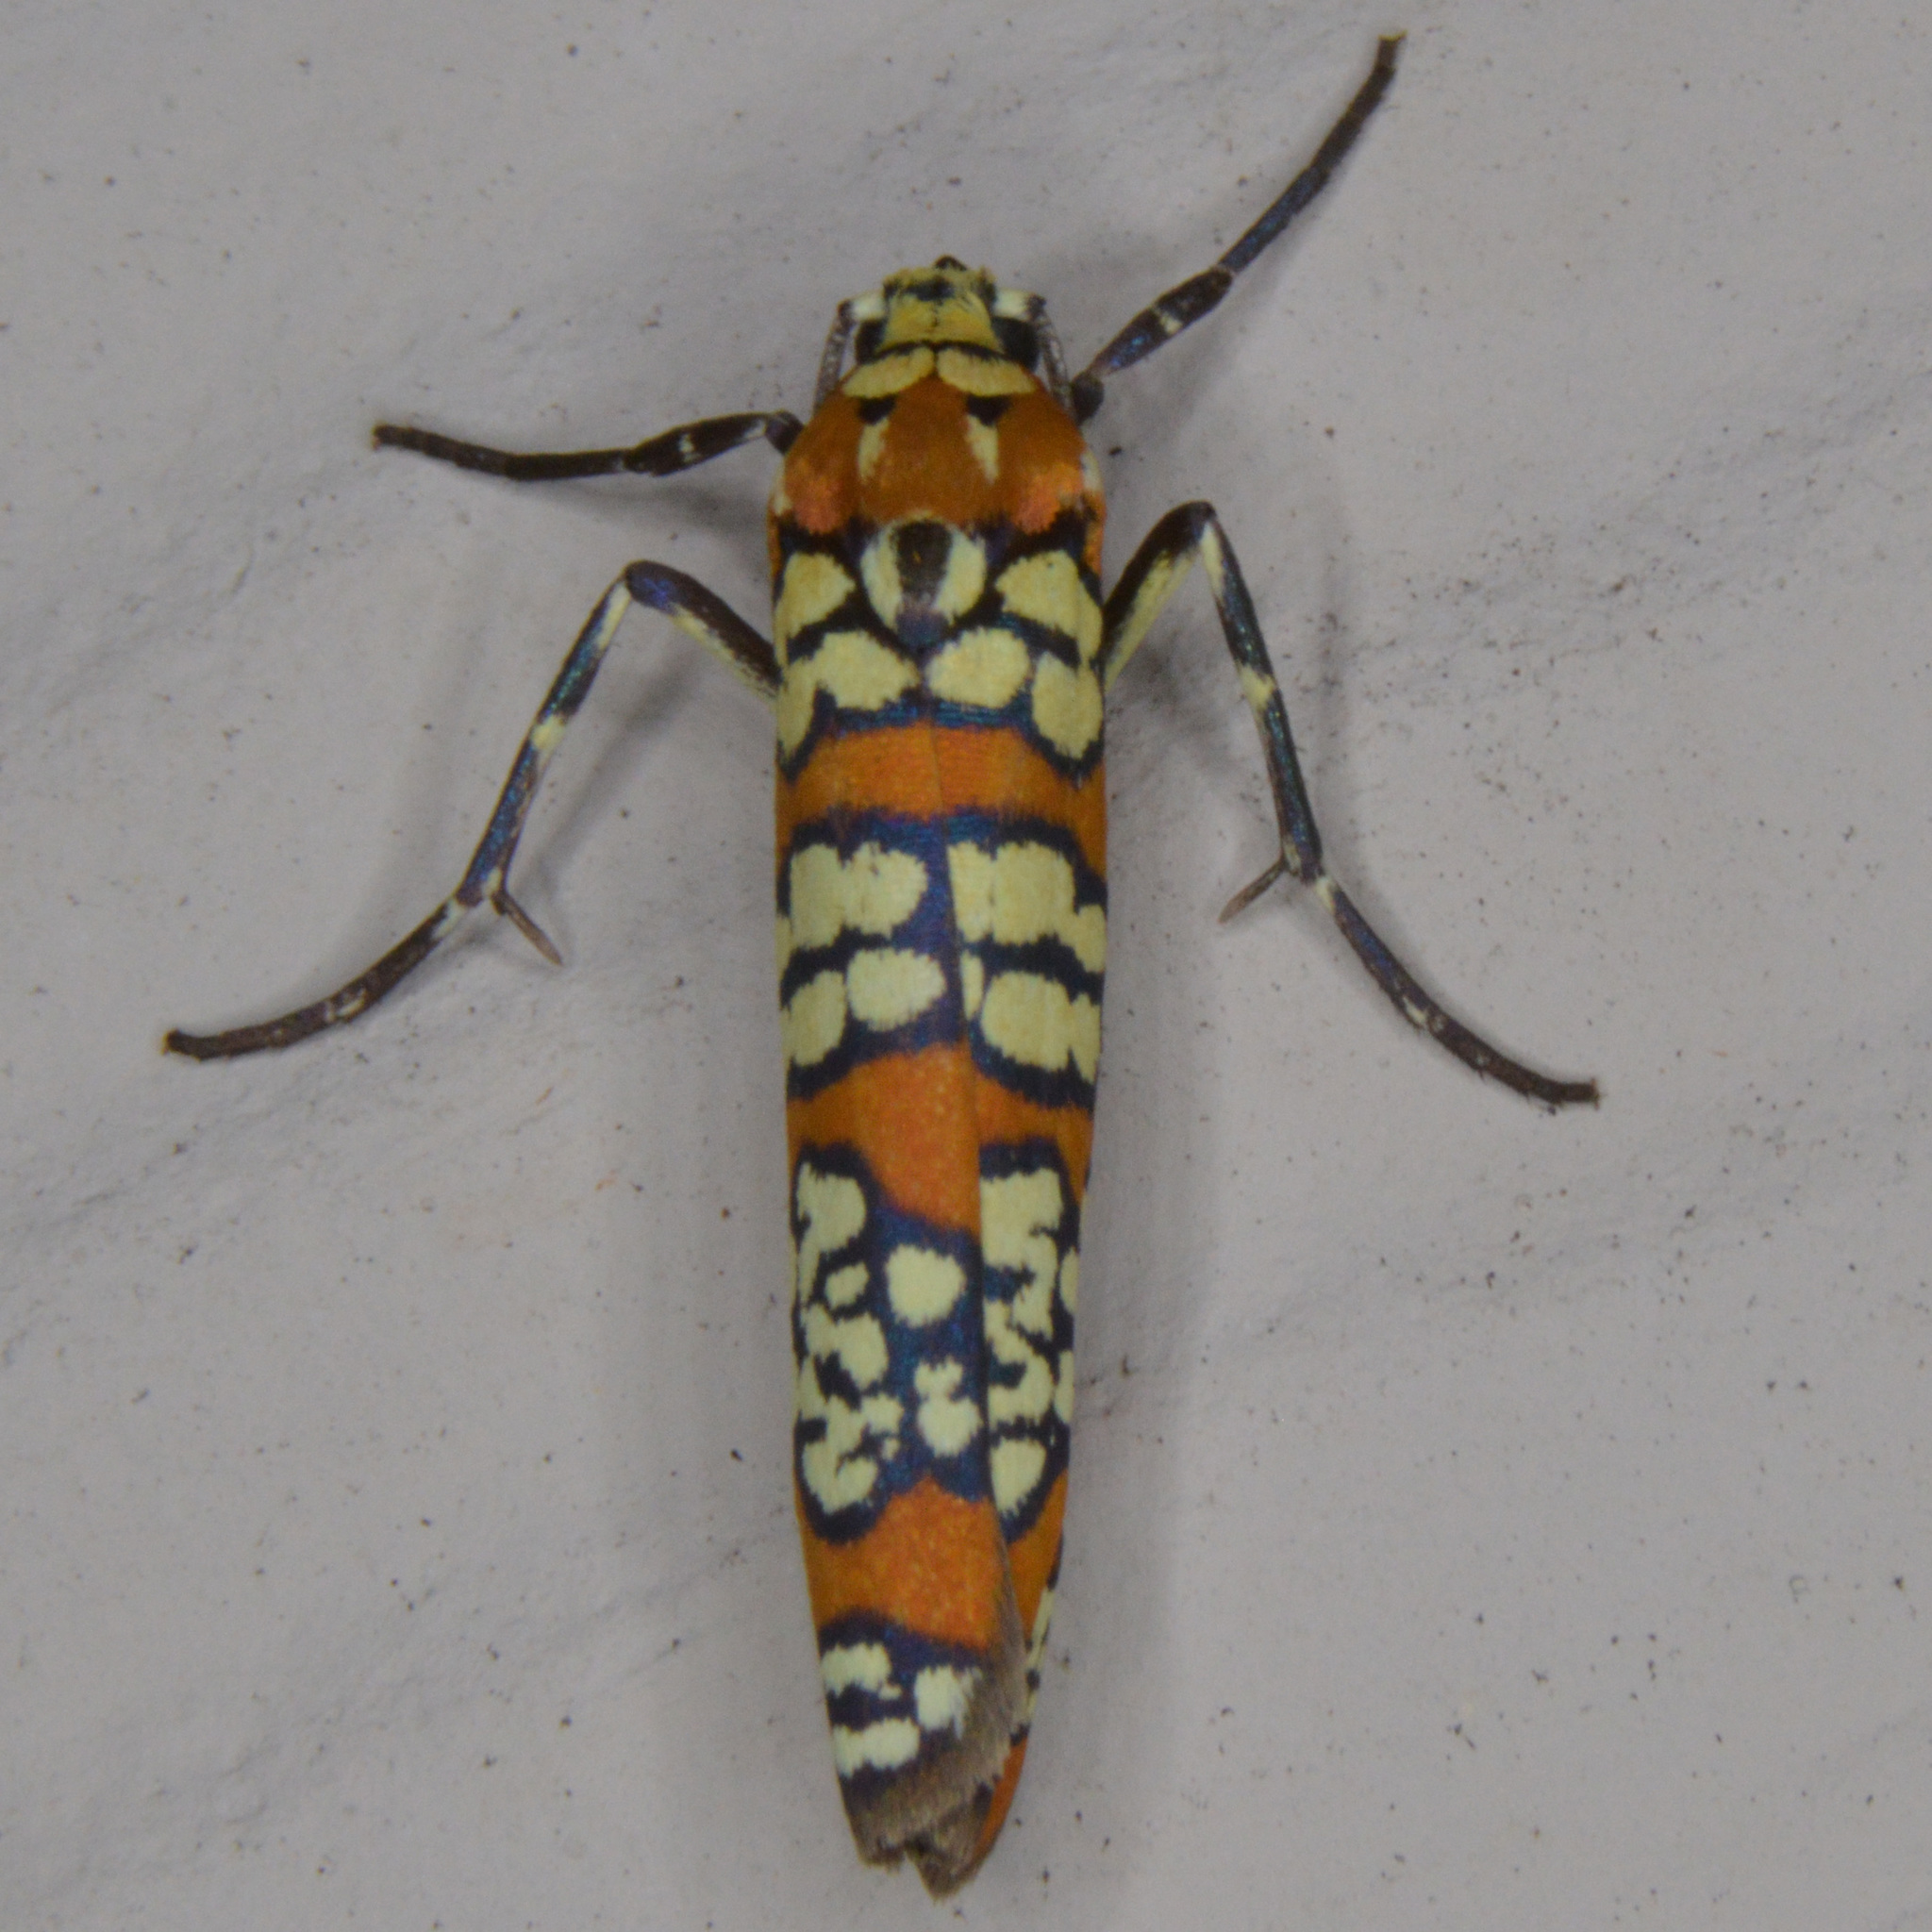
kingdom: Animalia
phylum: Arthropoda
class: Insecta
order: Lepidoptera
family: Attevidae
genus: Atteva
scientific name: Atteva punctella
